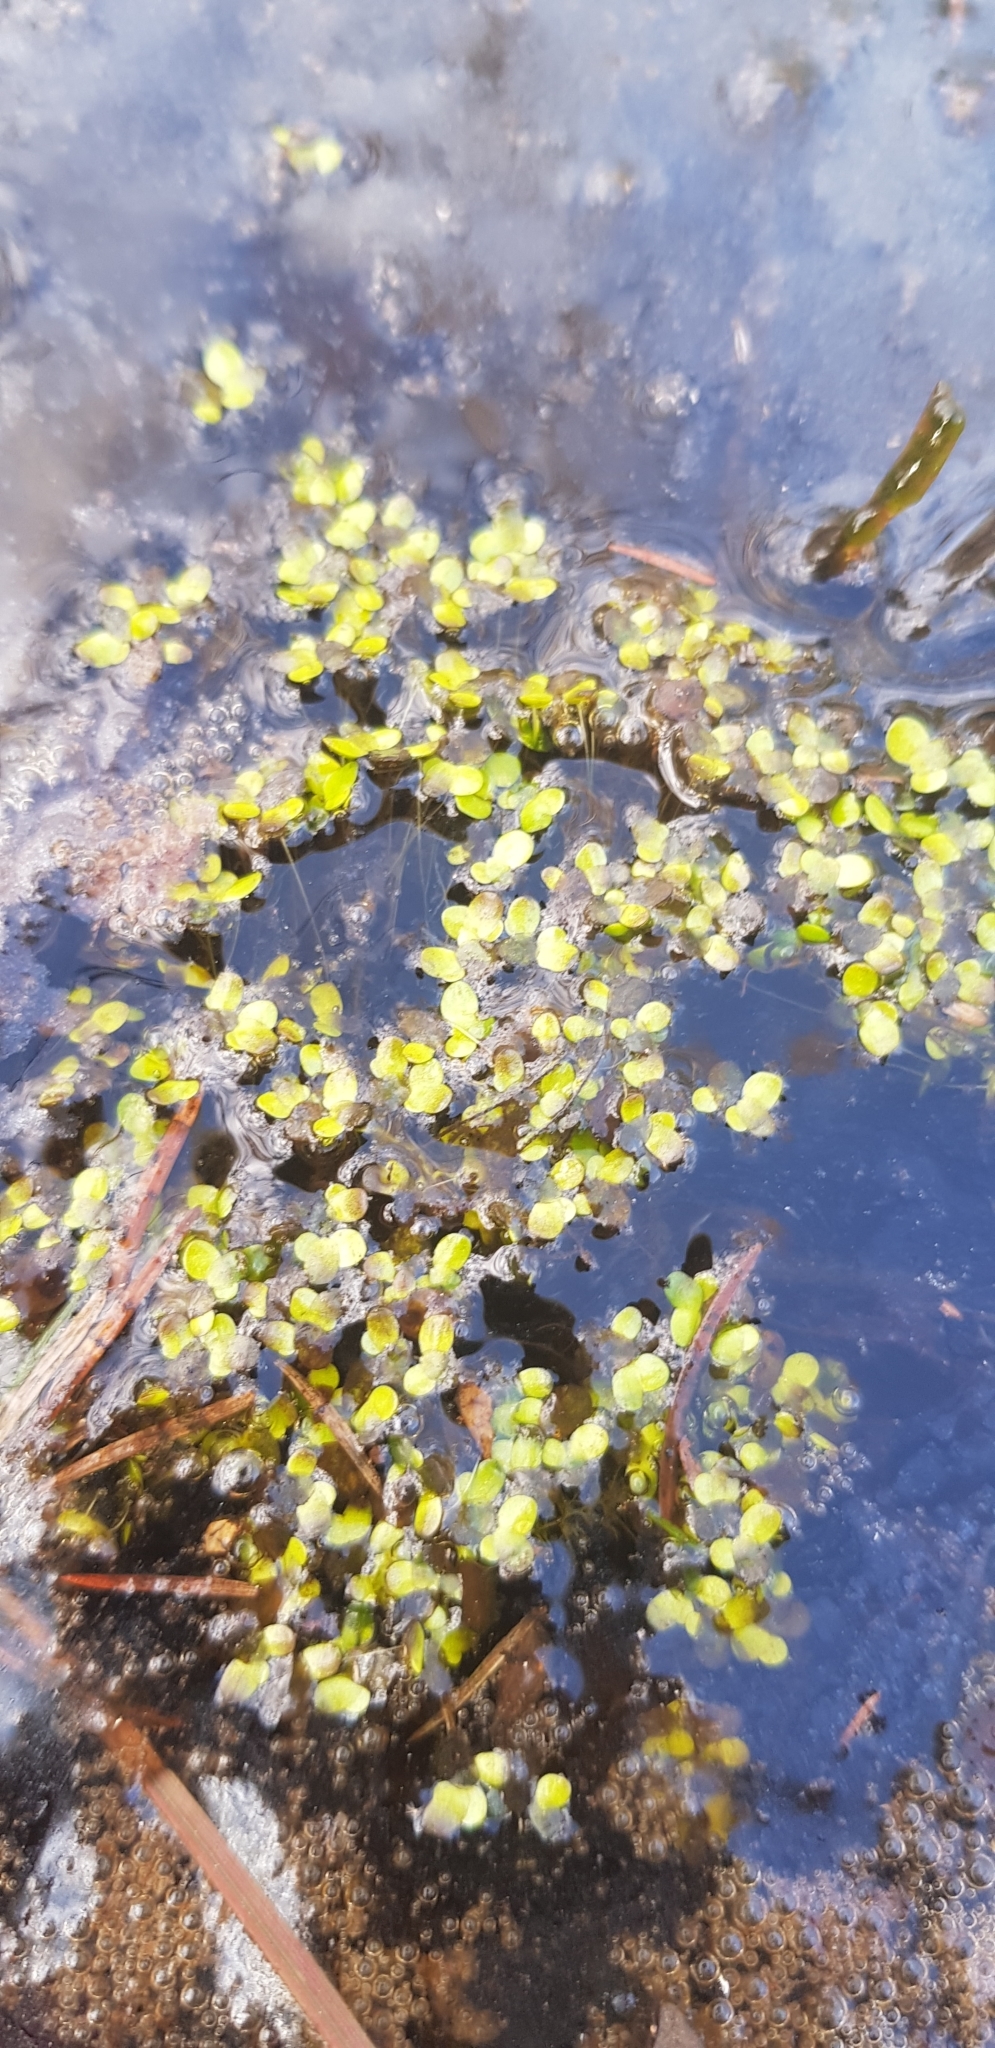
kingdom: Plantae
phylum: Tracheophyta
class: Liliopsida
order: Alismatales
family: Araceae
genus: Lemna
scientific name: Lemna minor
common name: Common duckweed
